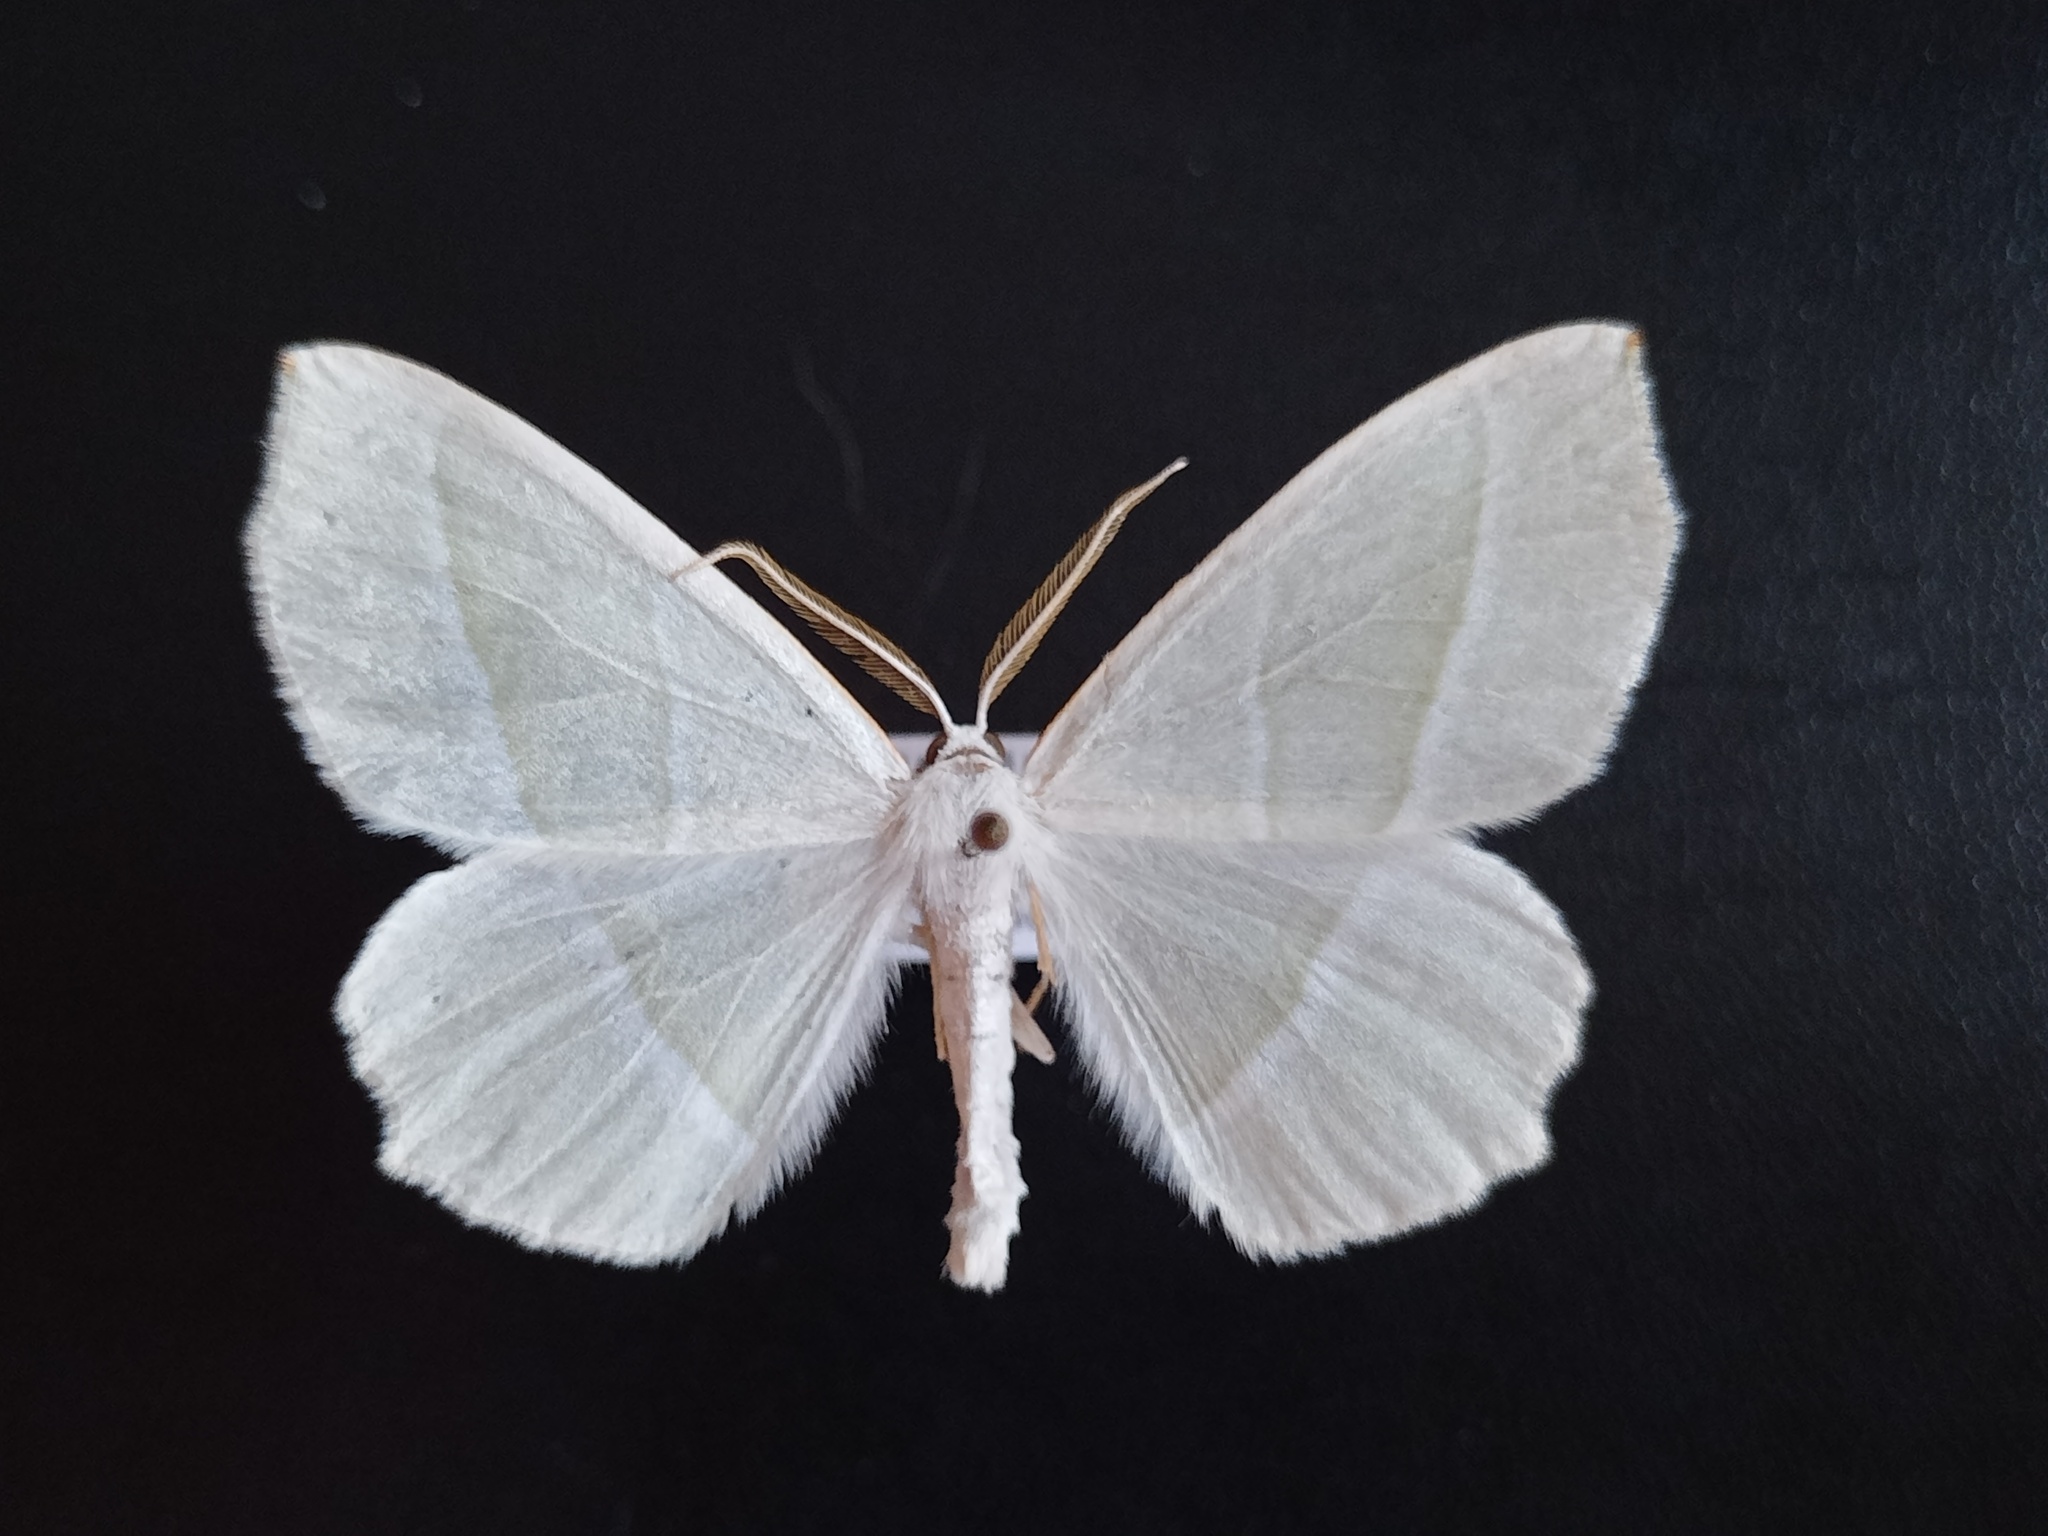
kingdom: Animalia
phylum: Arthropoda
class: Insecta
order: Lepidoptera
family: Geometridae
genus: Campaea
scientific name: Campaea margaritaria
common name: Light emerald
